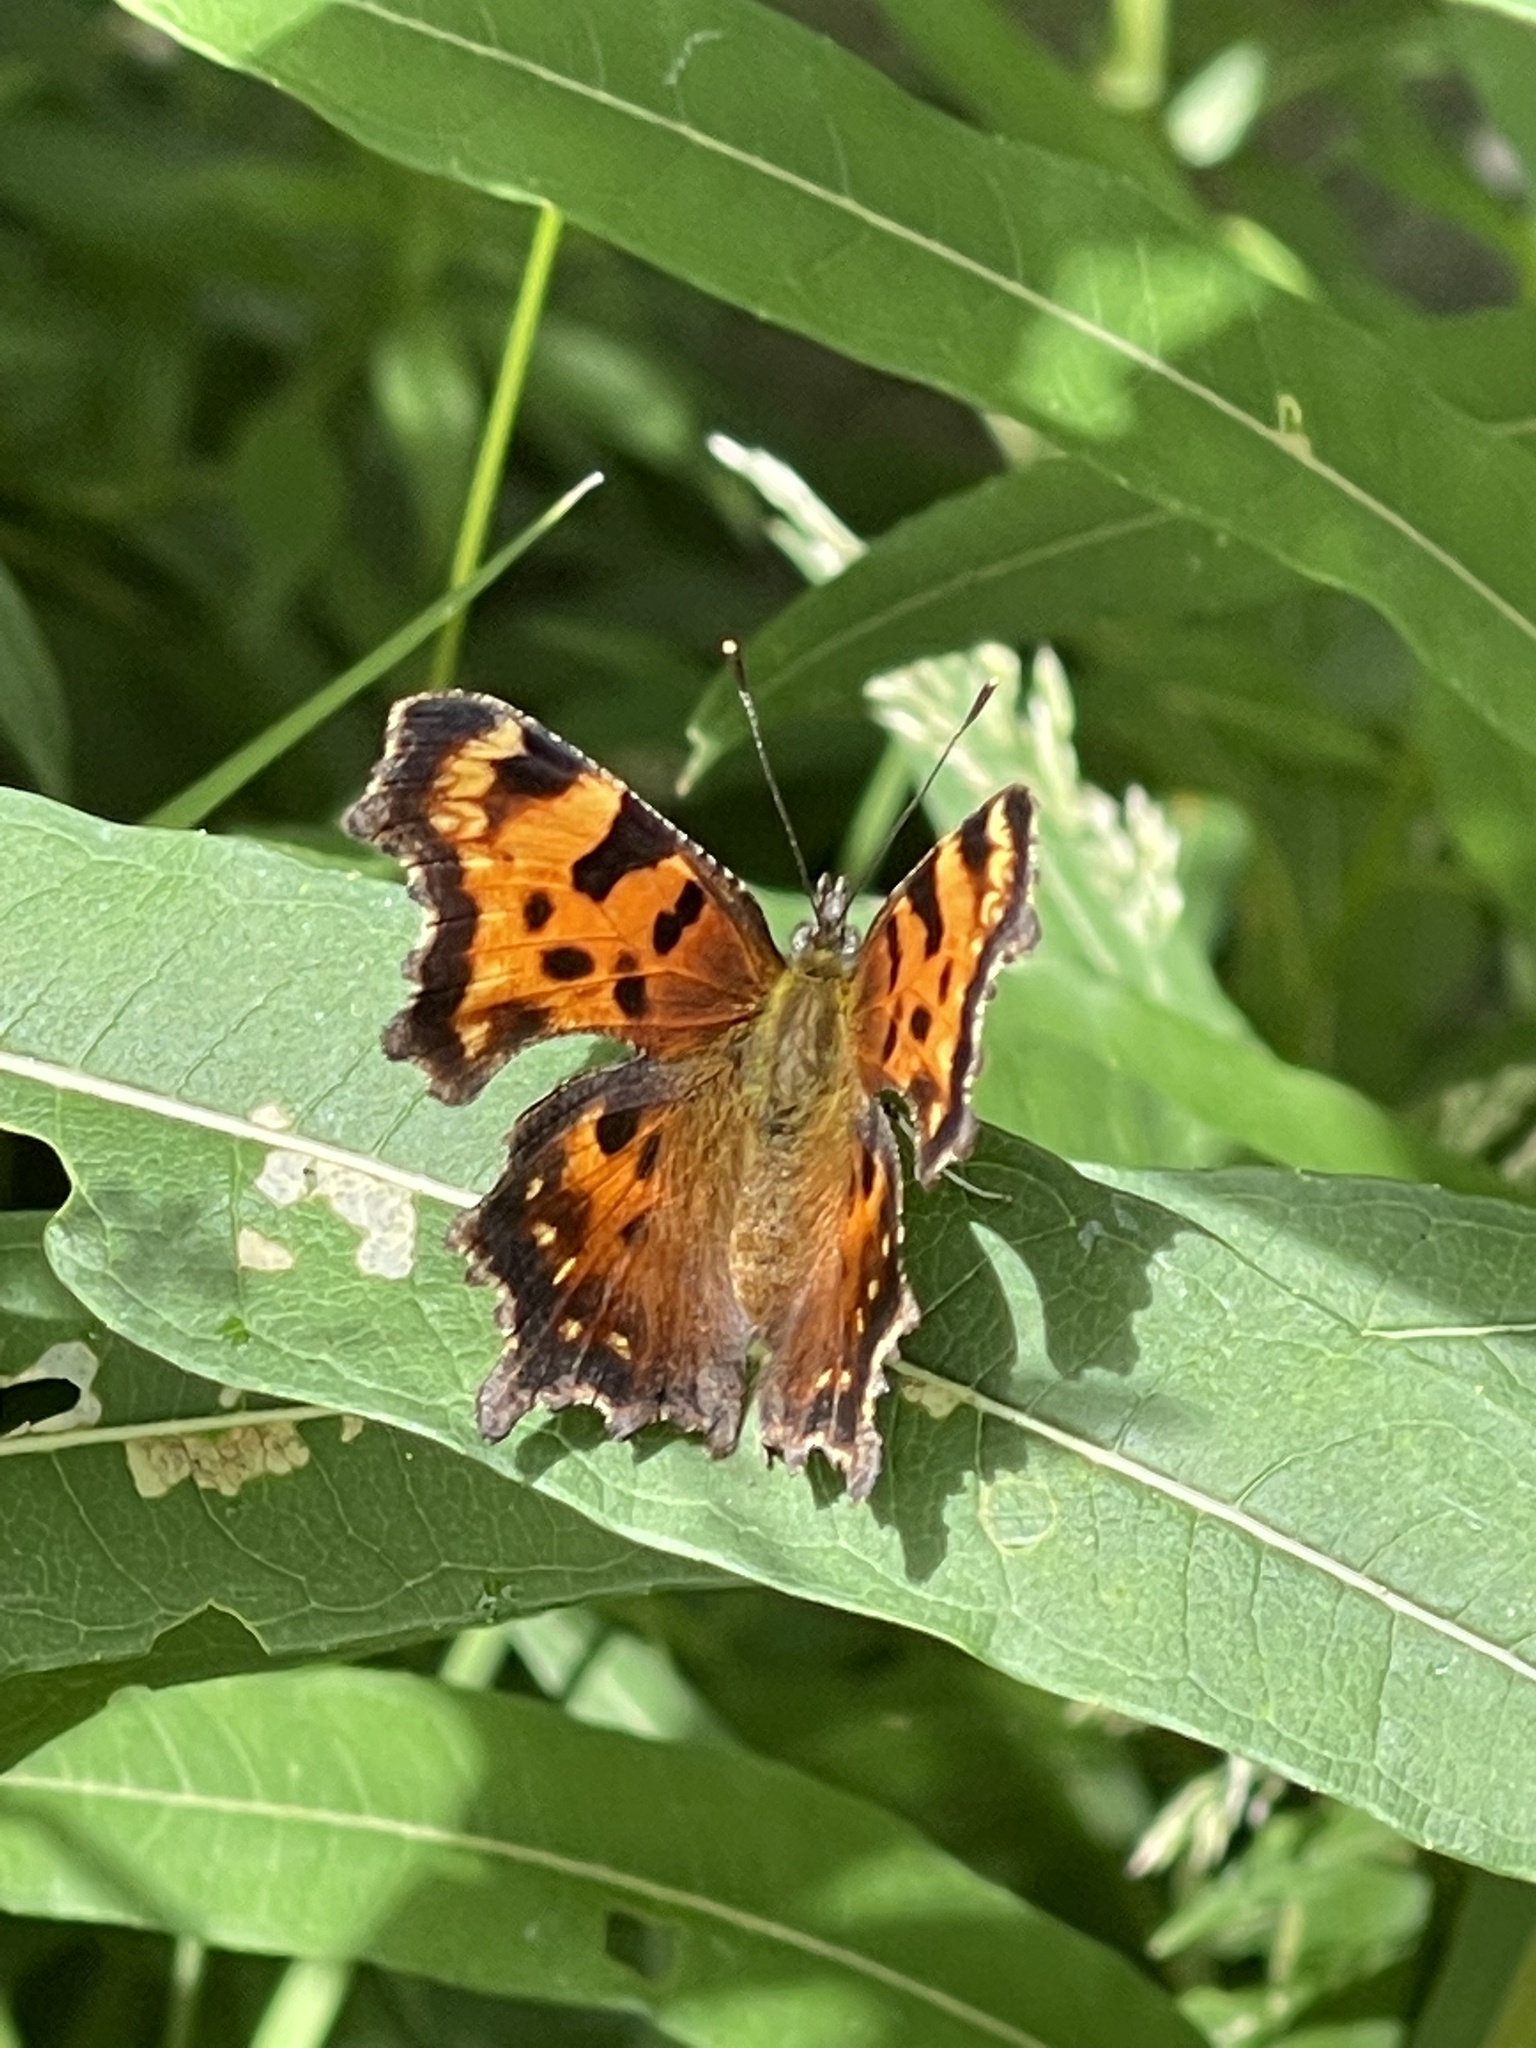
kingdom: Animalia
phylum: Arthropoda
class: Insecta
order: Lepidoptera
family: Nymphalidae
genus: Polygonia
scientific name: Polygonia faunus
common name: Green comma
